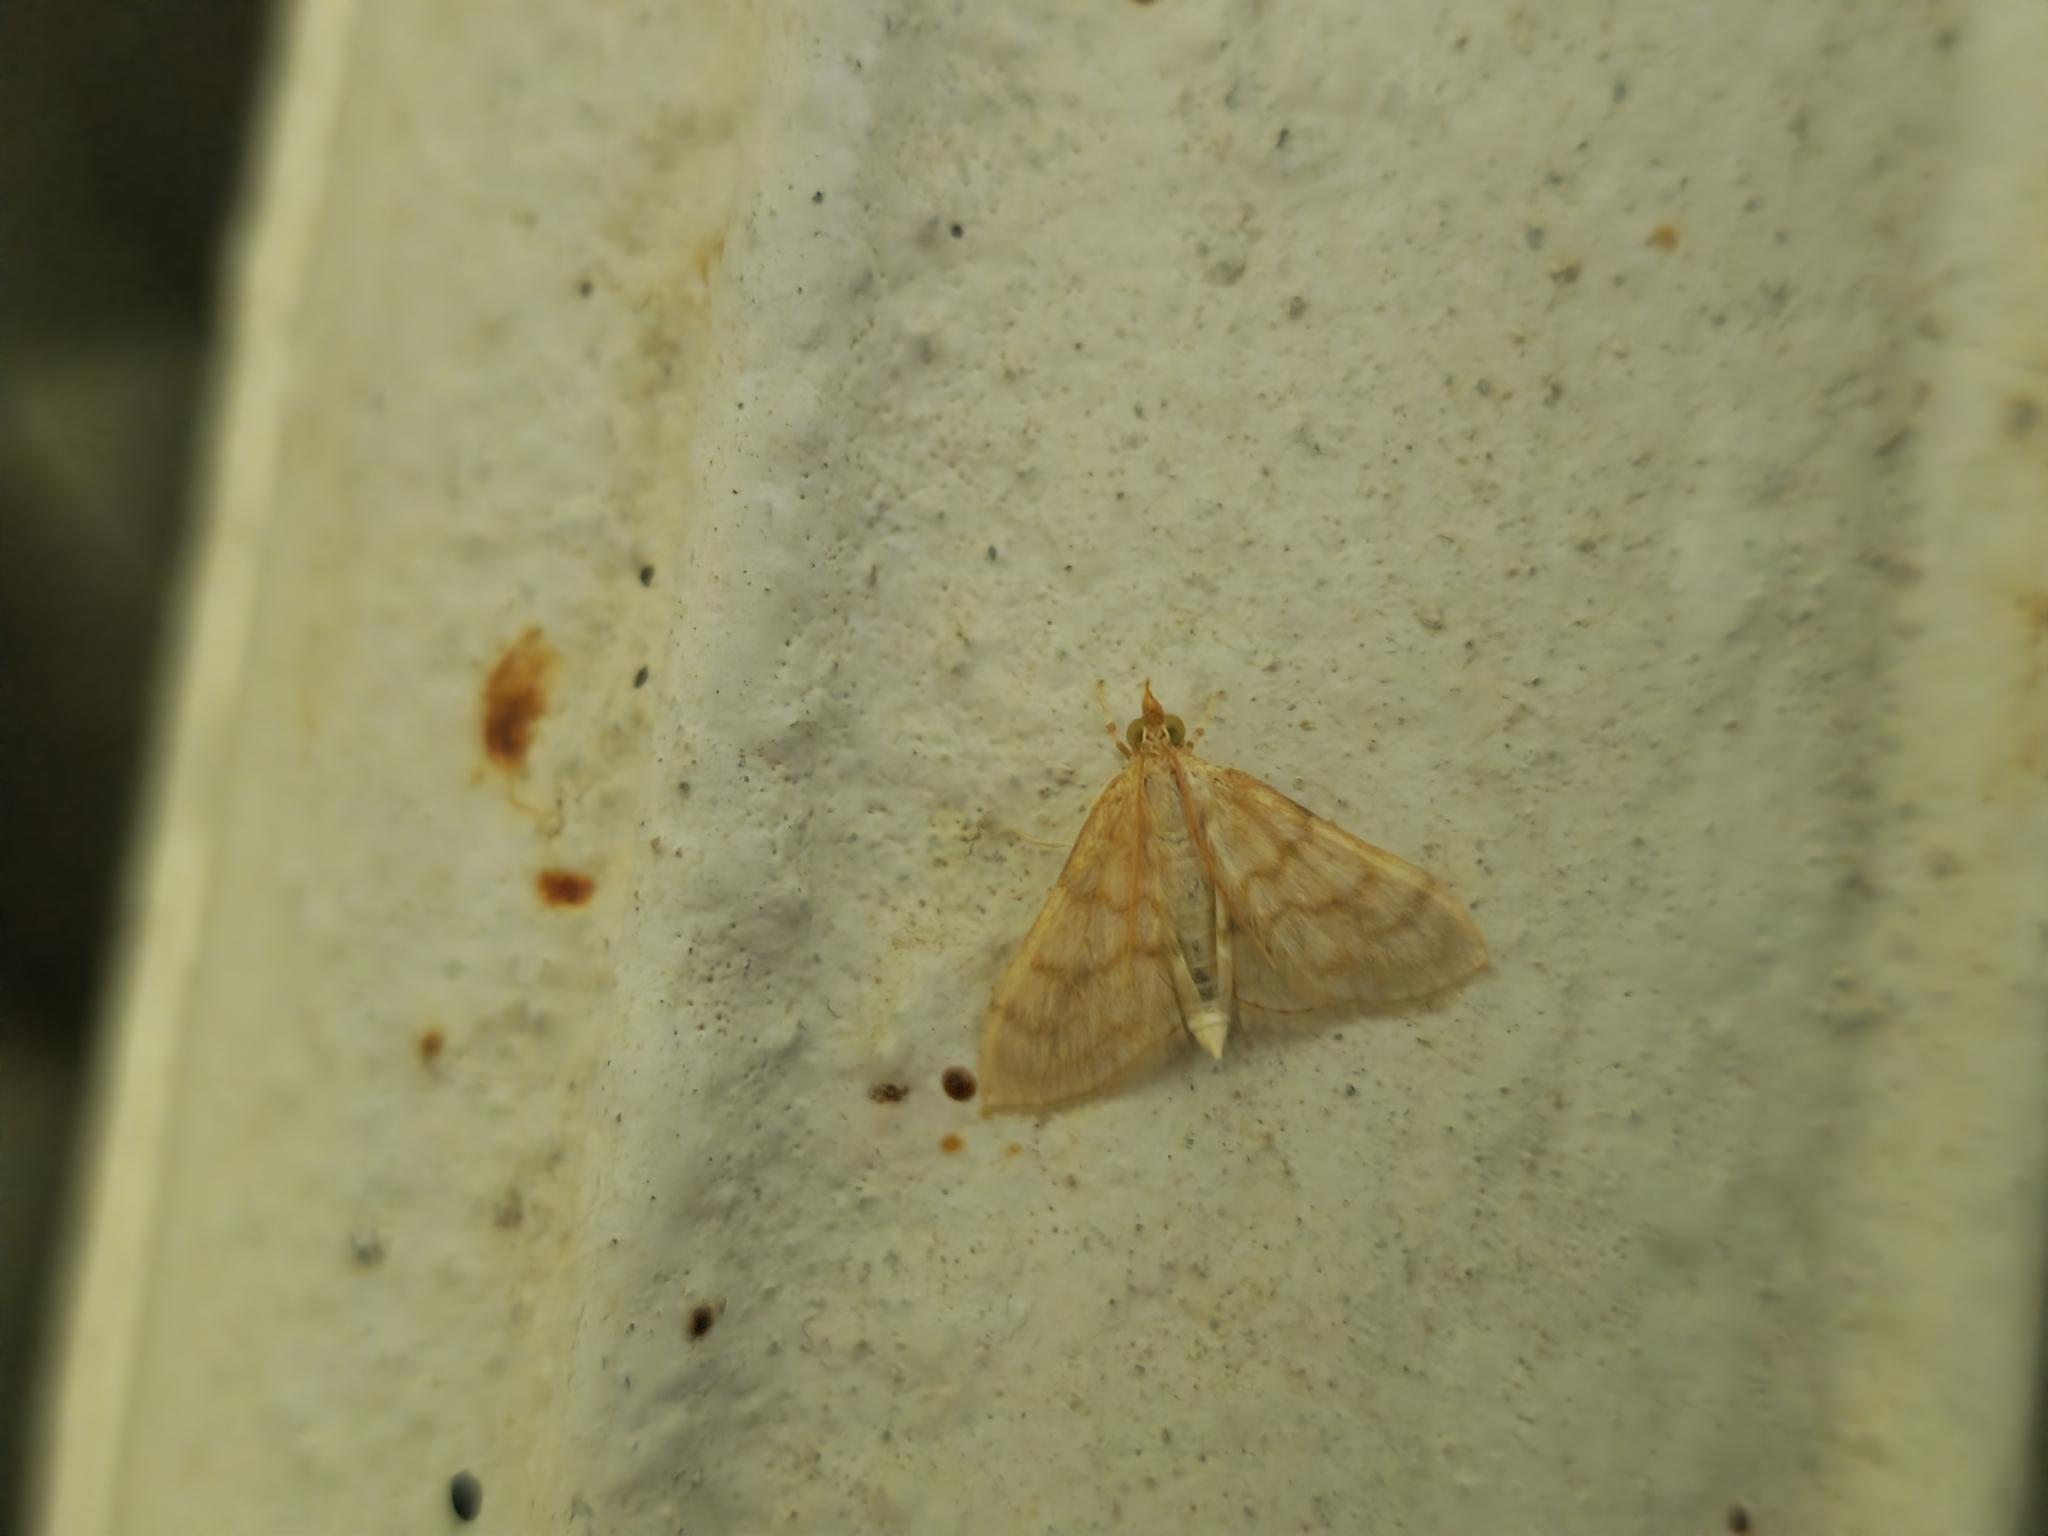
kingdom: Animalia
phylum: Arthropoda
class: Insecta
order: Lepidoptera
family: Crambidae
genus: Paracorsia
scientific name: Paracorsia repandalis
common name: Mullein moth
